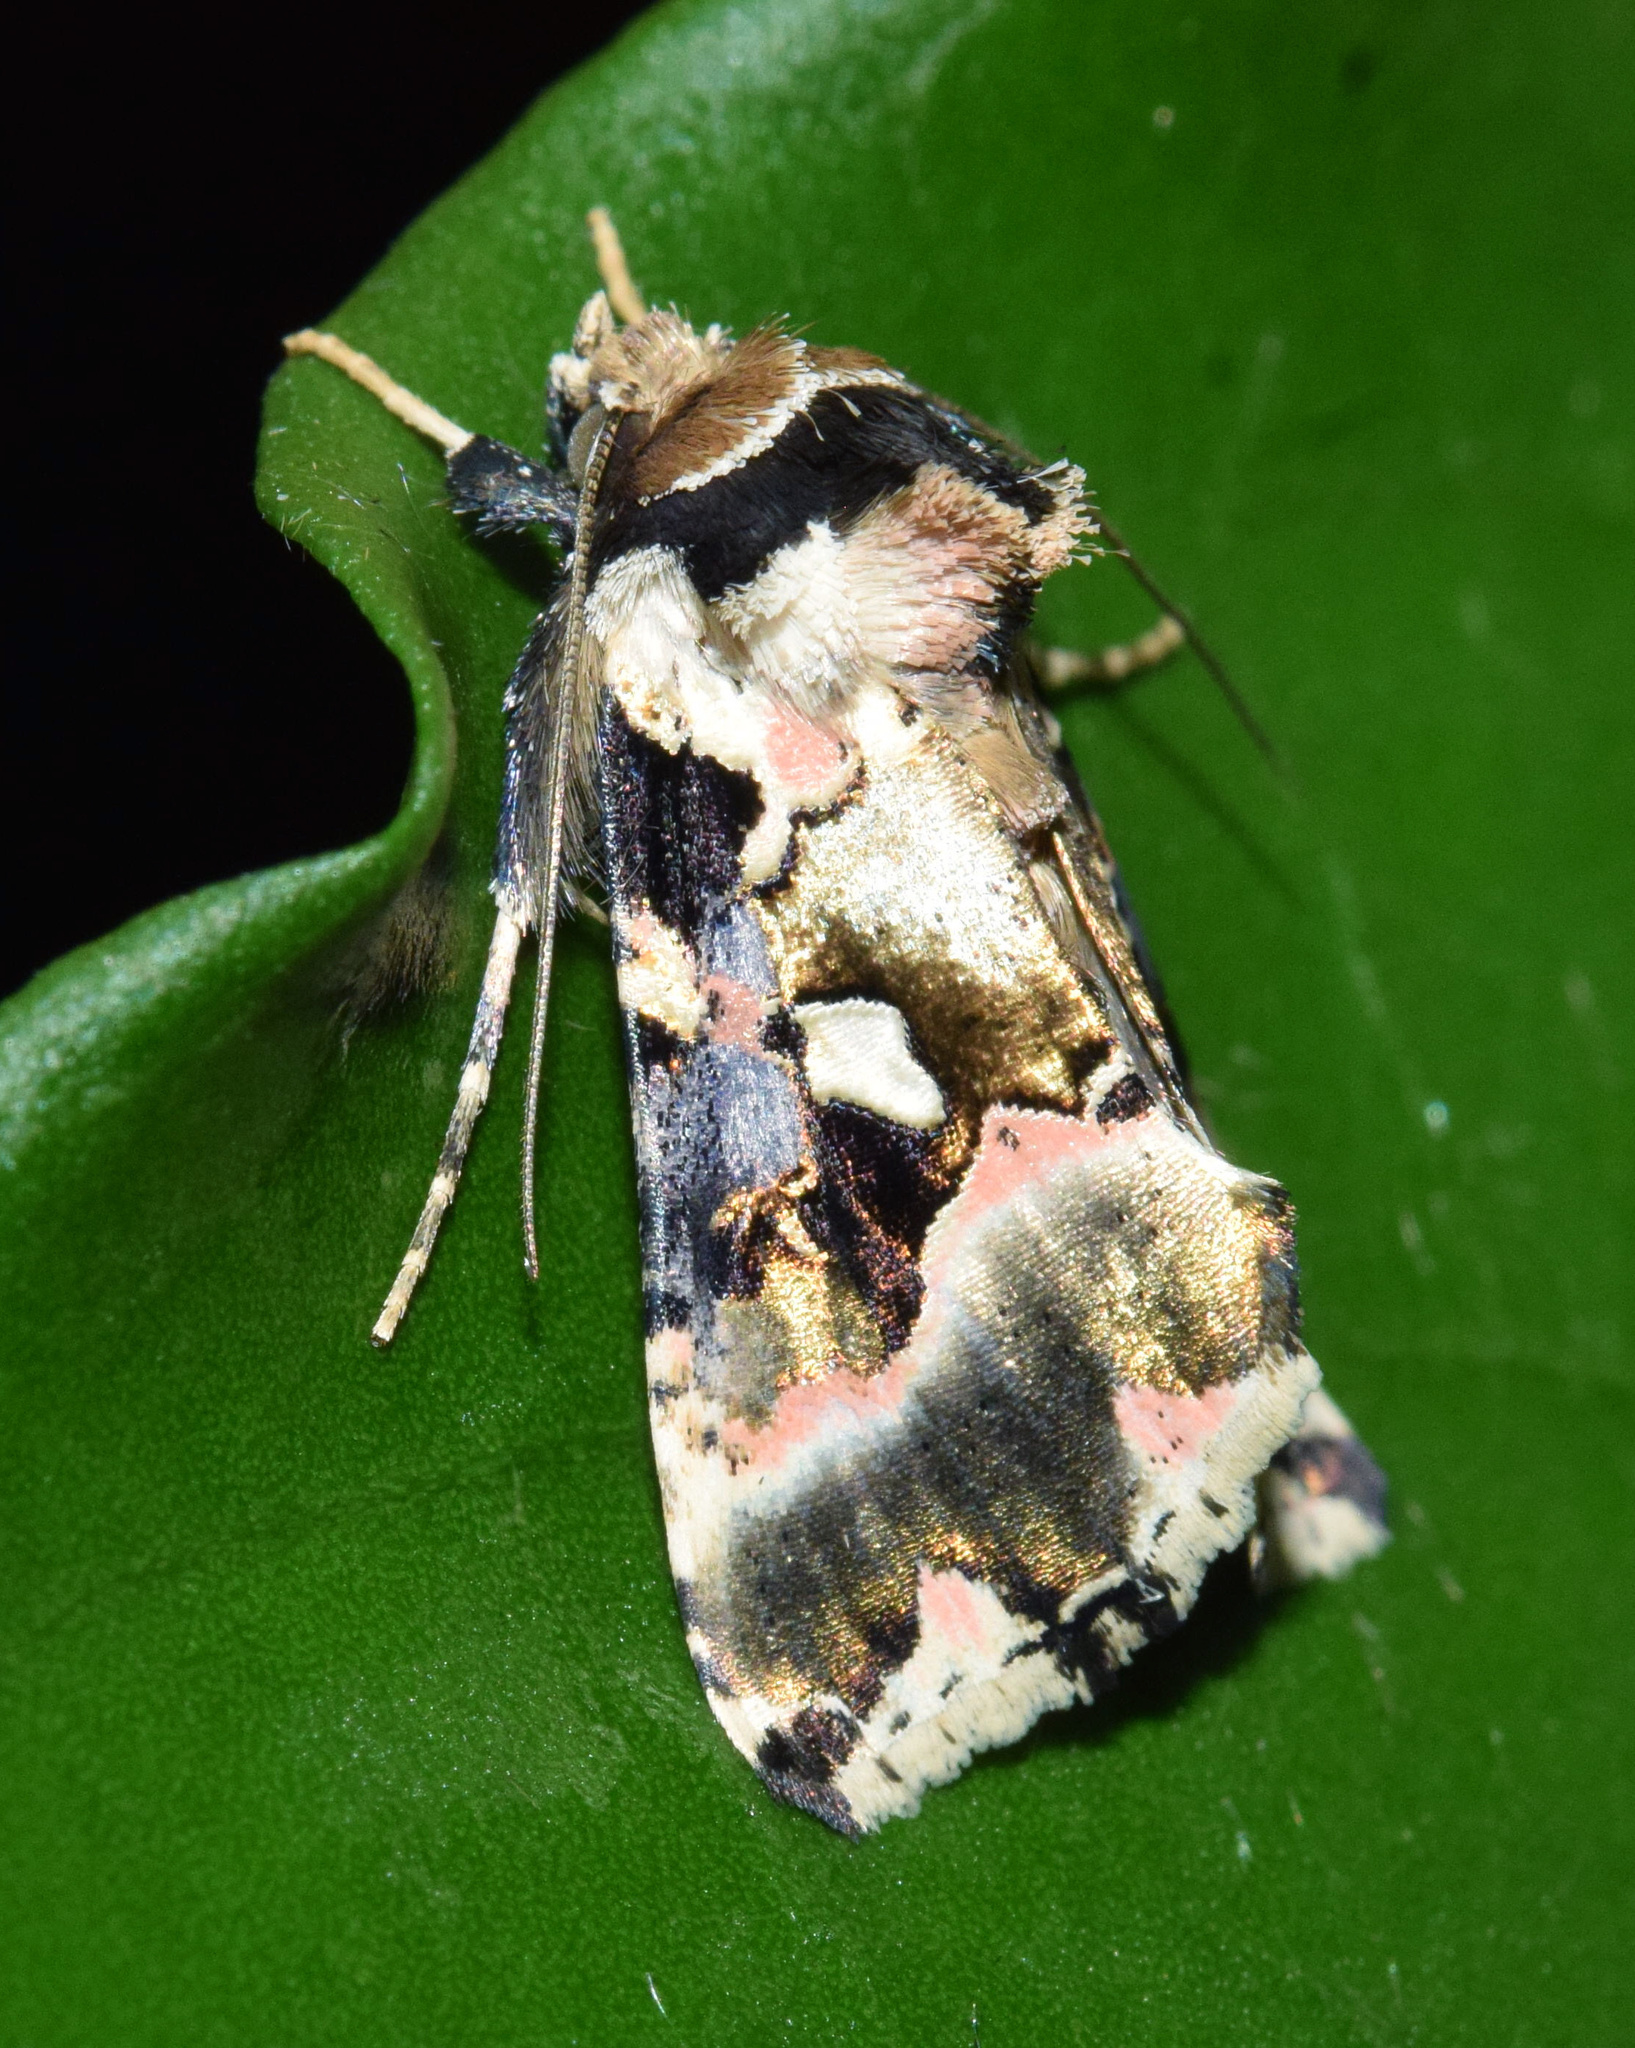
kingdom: Animalia
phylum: Arthropoda
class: Insecta
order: Lepidoptera
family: Noctuidae
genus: Trichoplusia
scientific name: Trichoplusia roseofasciata
